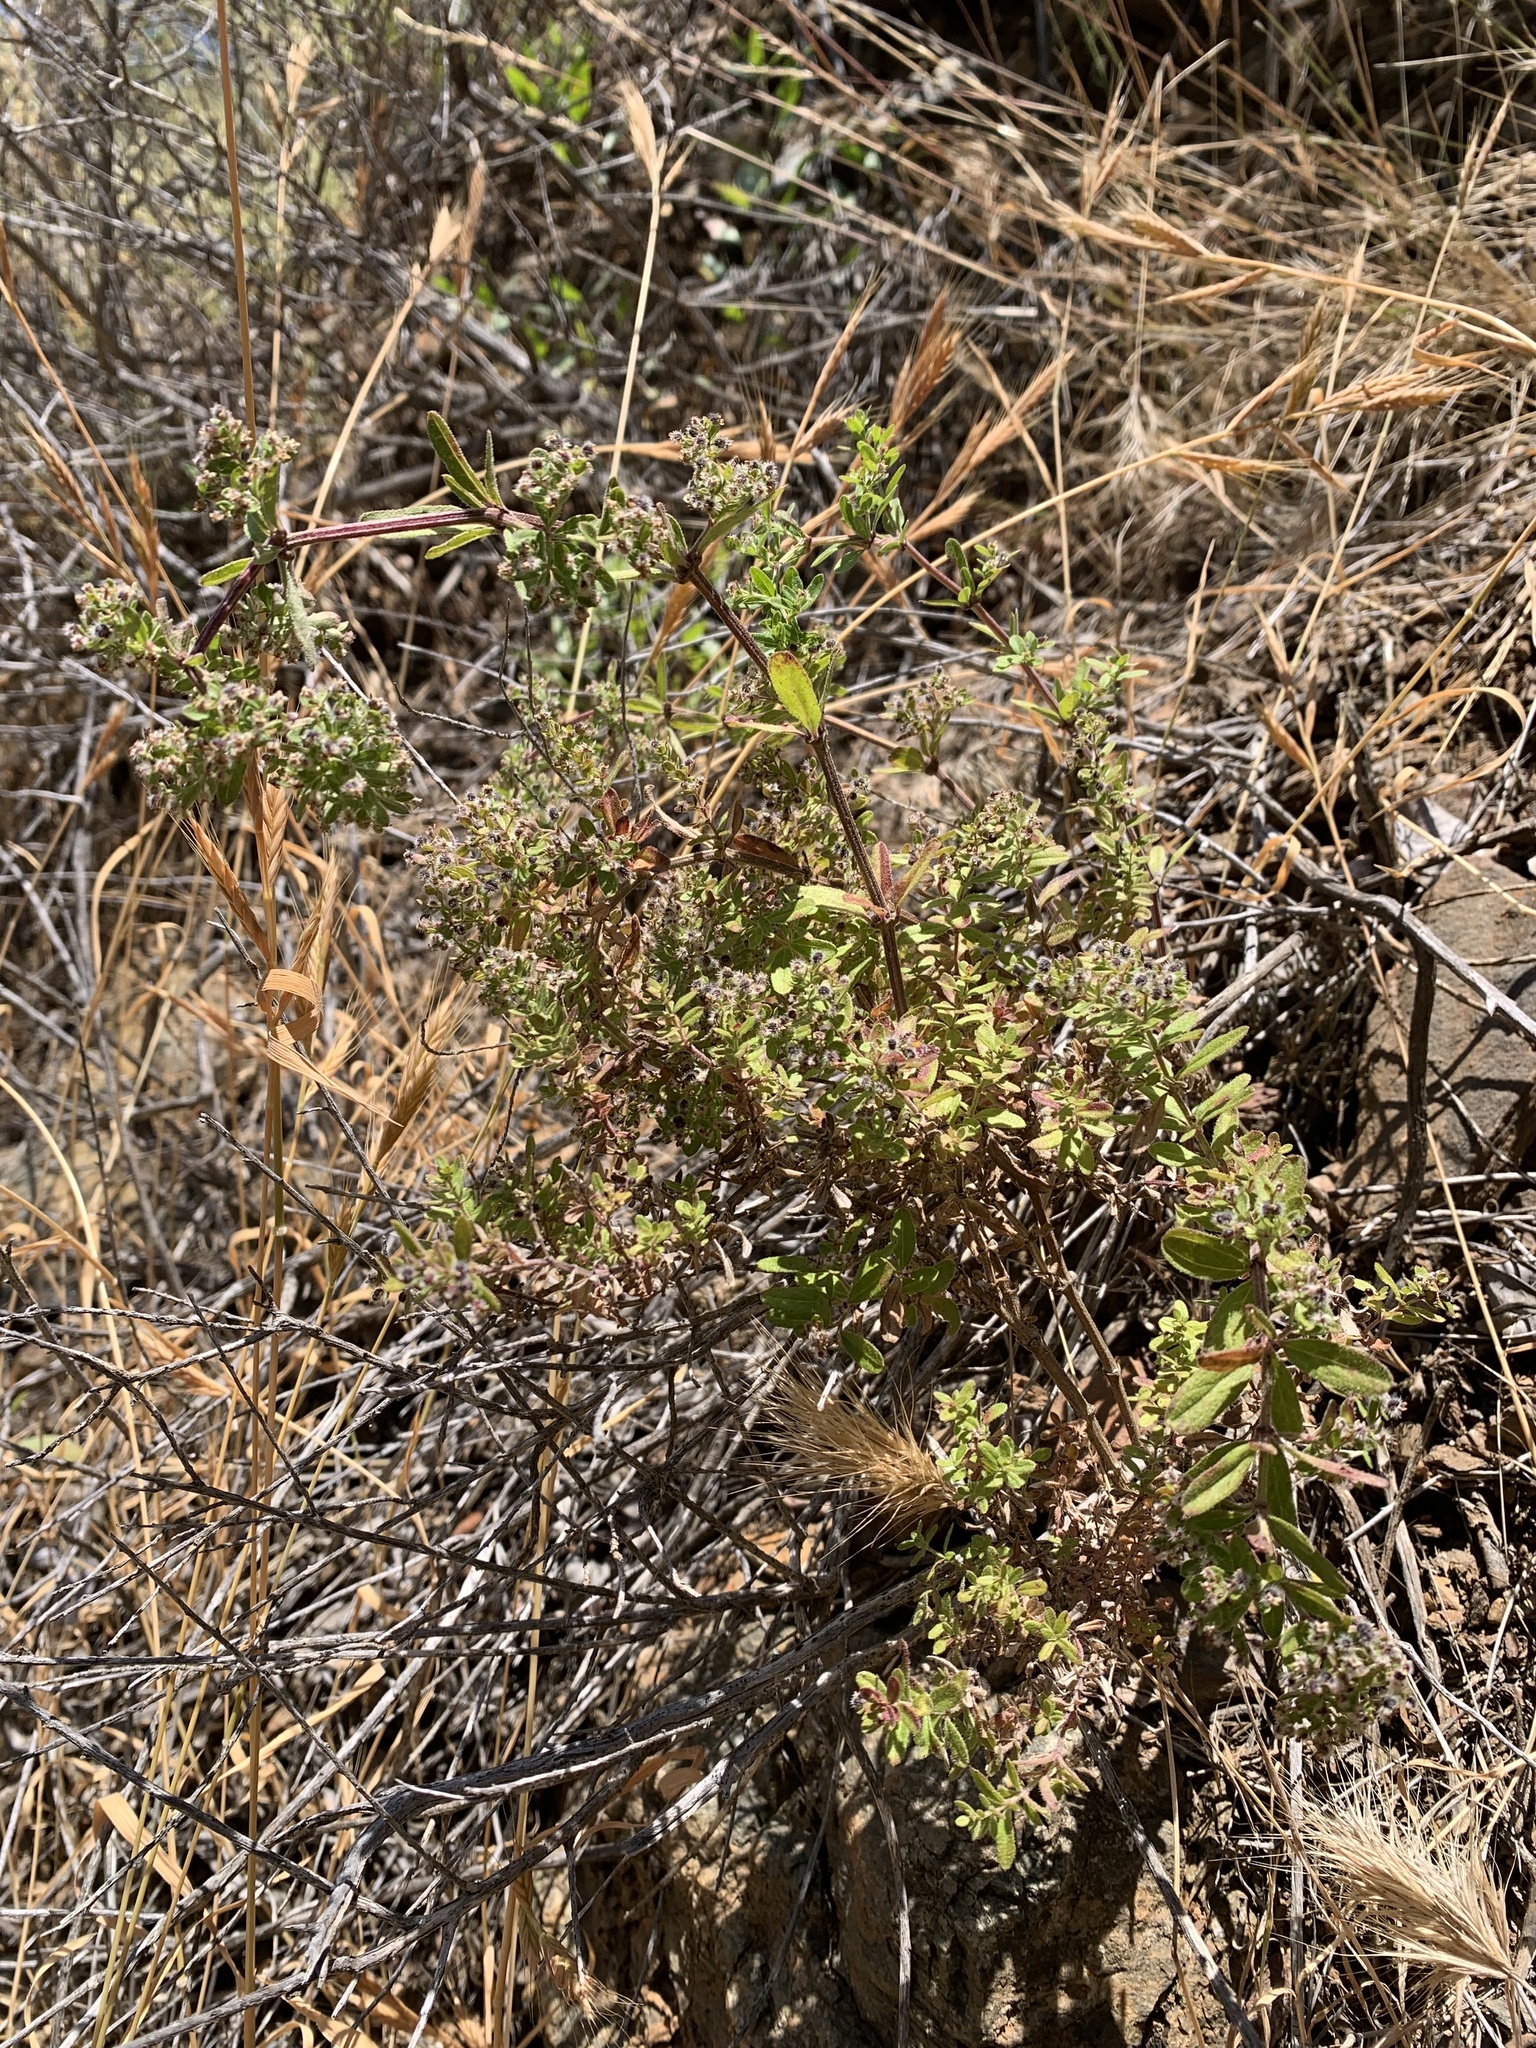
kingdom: Plantae
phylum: Tracheophyta
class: Magnoliopsida
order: Gentianales
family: Rubiaceae
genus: Galium
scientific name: Galium catalinense
